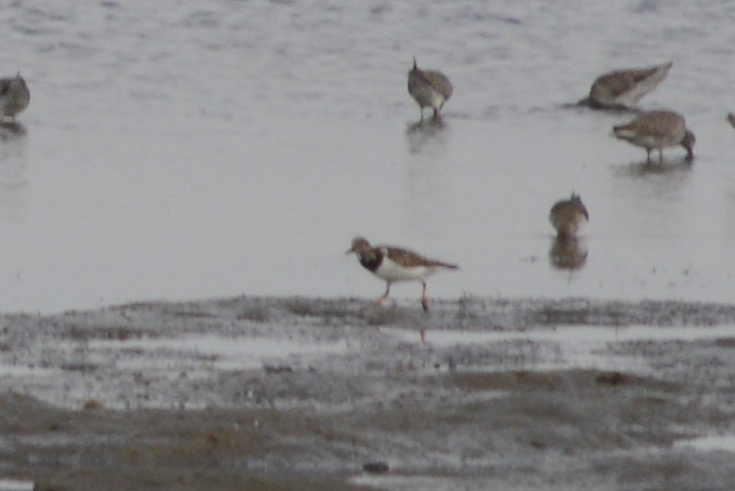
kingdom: Animalia
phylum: Chordata
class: Aves
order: Charadriiformes
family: Scolopacidae
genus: Arenaria
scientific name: Arenaria interpres
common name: Ruddy turnstone
